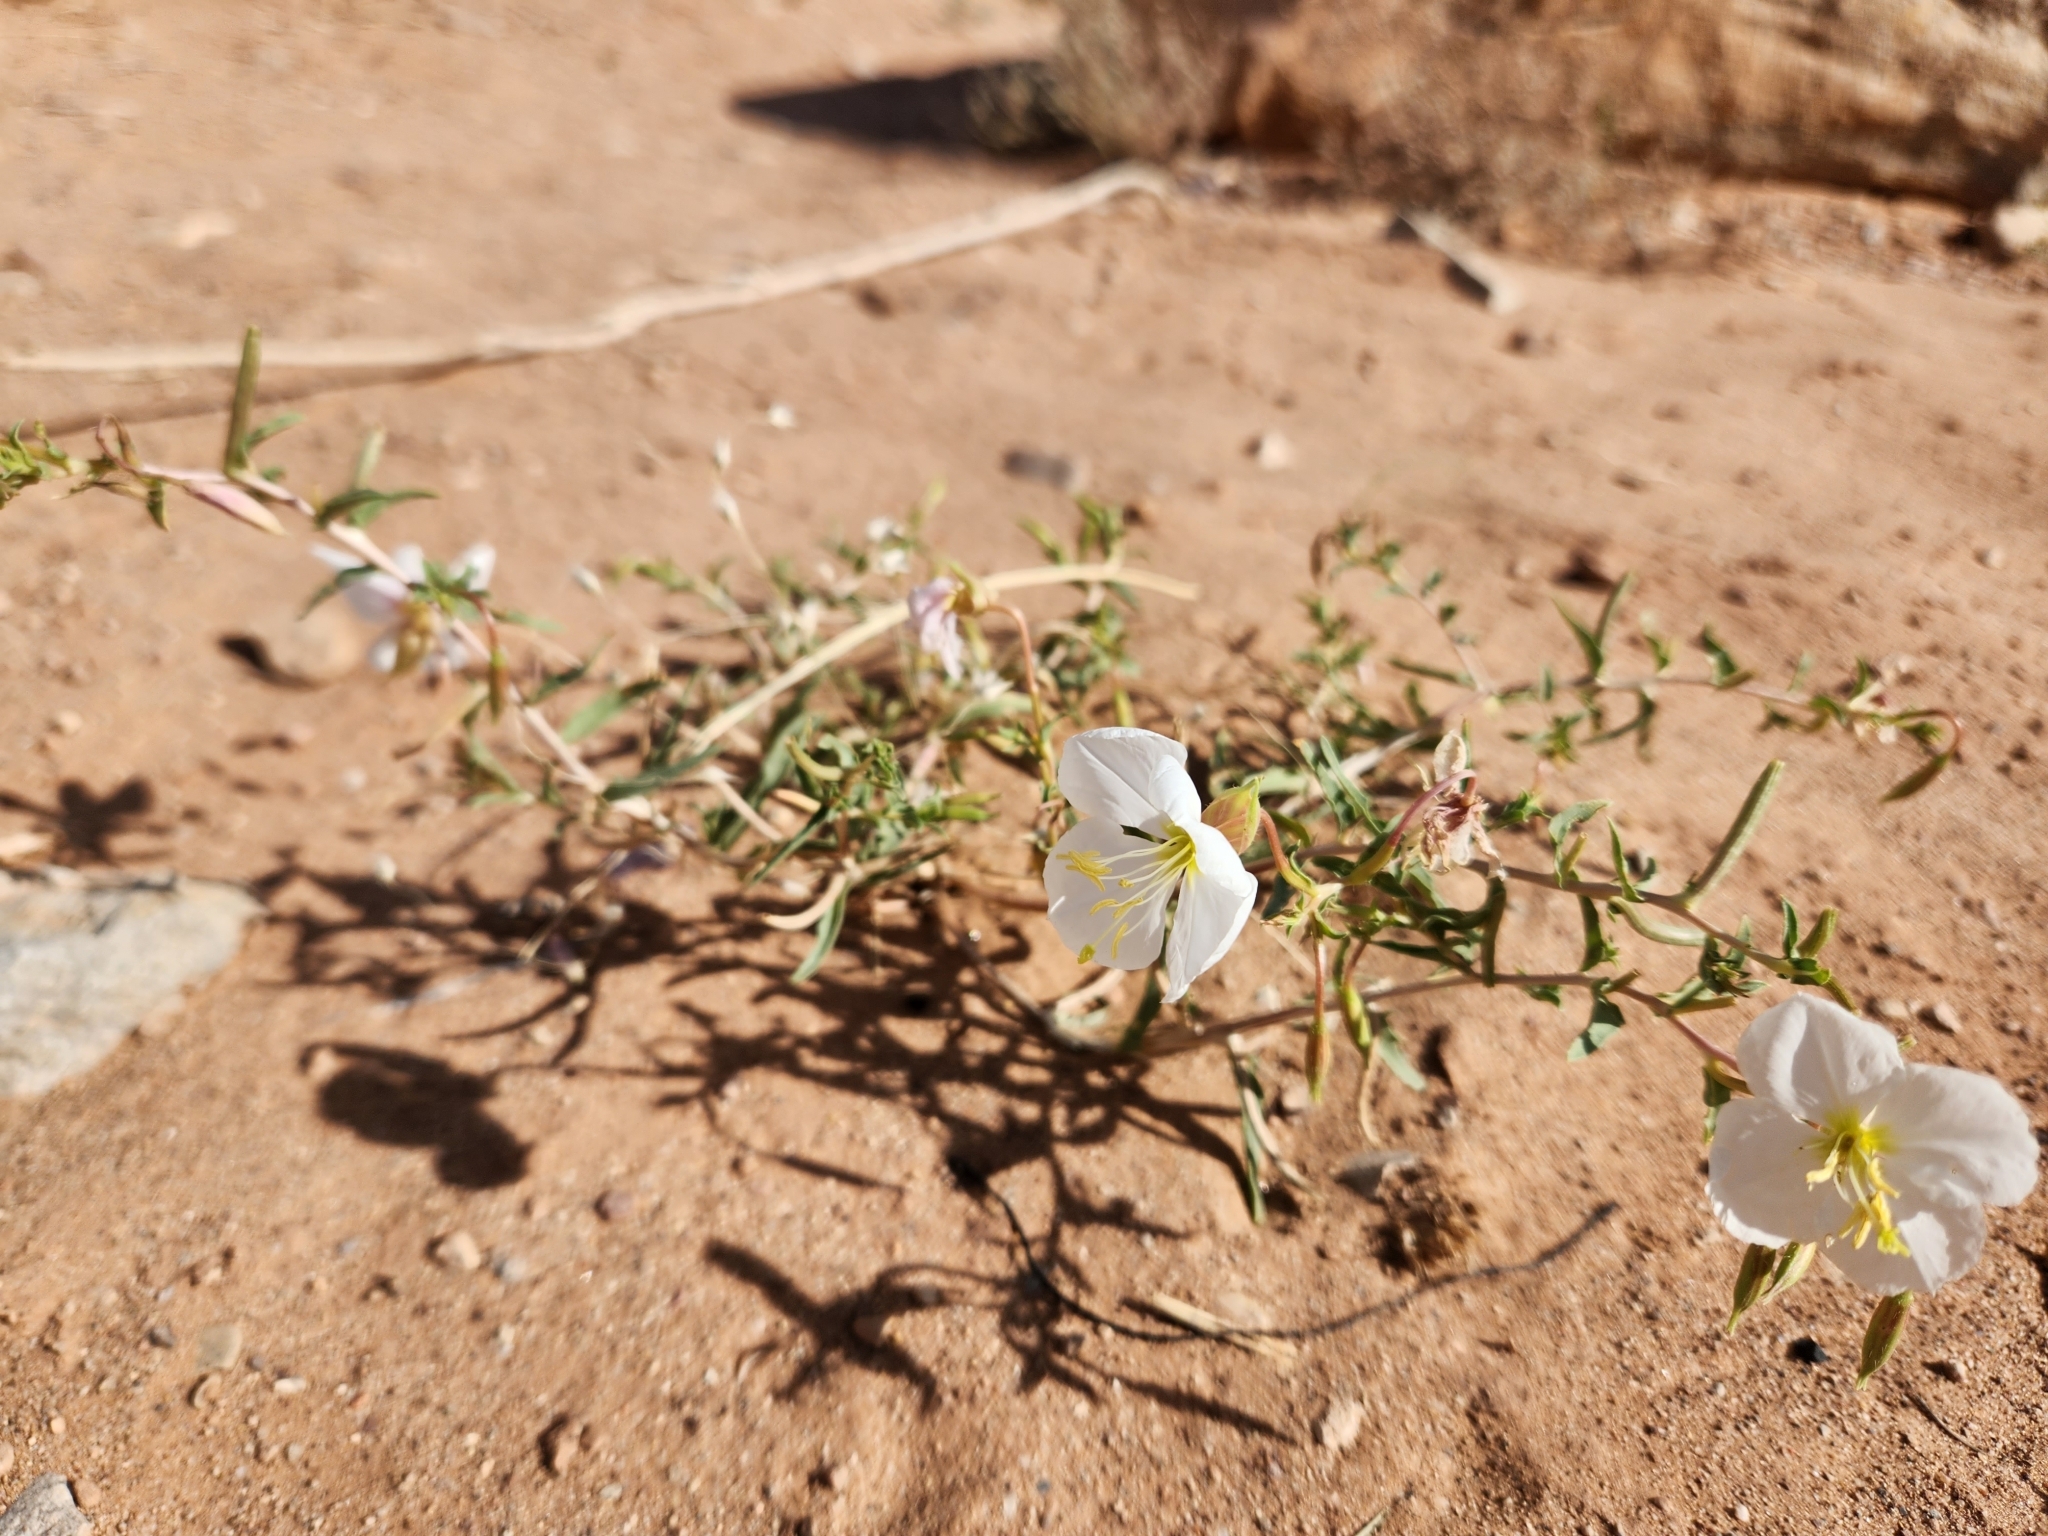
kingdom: Plantae
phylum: Tracheophyta
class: Magnoliopsida
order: Myrtales
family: Onagraceae
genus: Oenothera
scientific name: Oenothera pallida
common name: Pale evening-primrose
